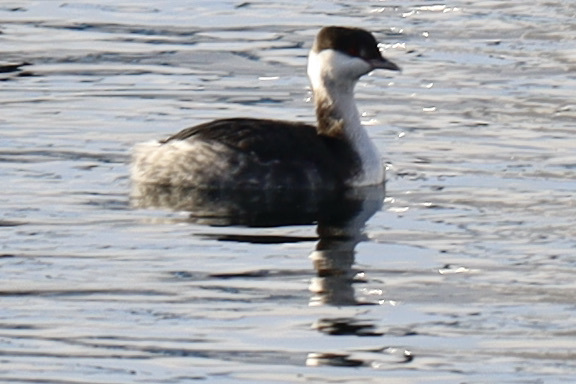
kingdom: Animalia
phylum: Chordata
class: Aves
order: Podicipediformes
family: Podicipedidae
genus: Podiceps
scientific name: Podiceps auritus
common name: Horned grebe
